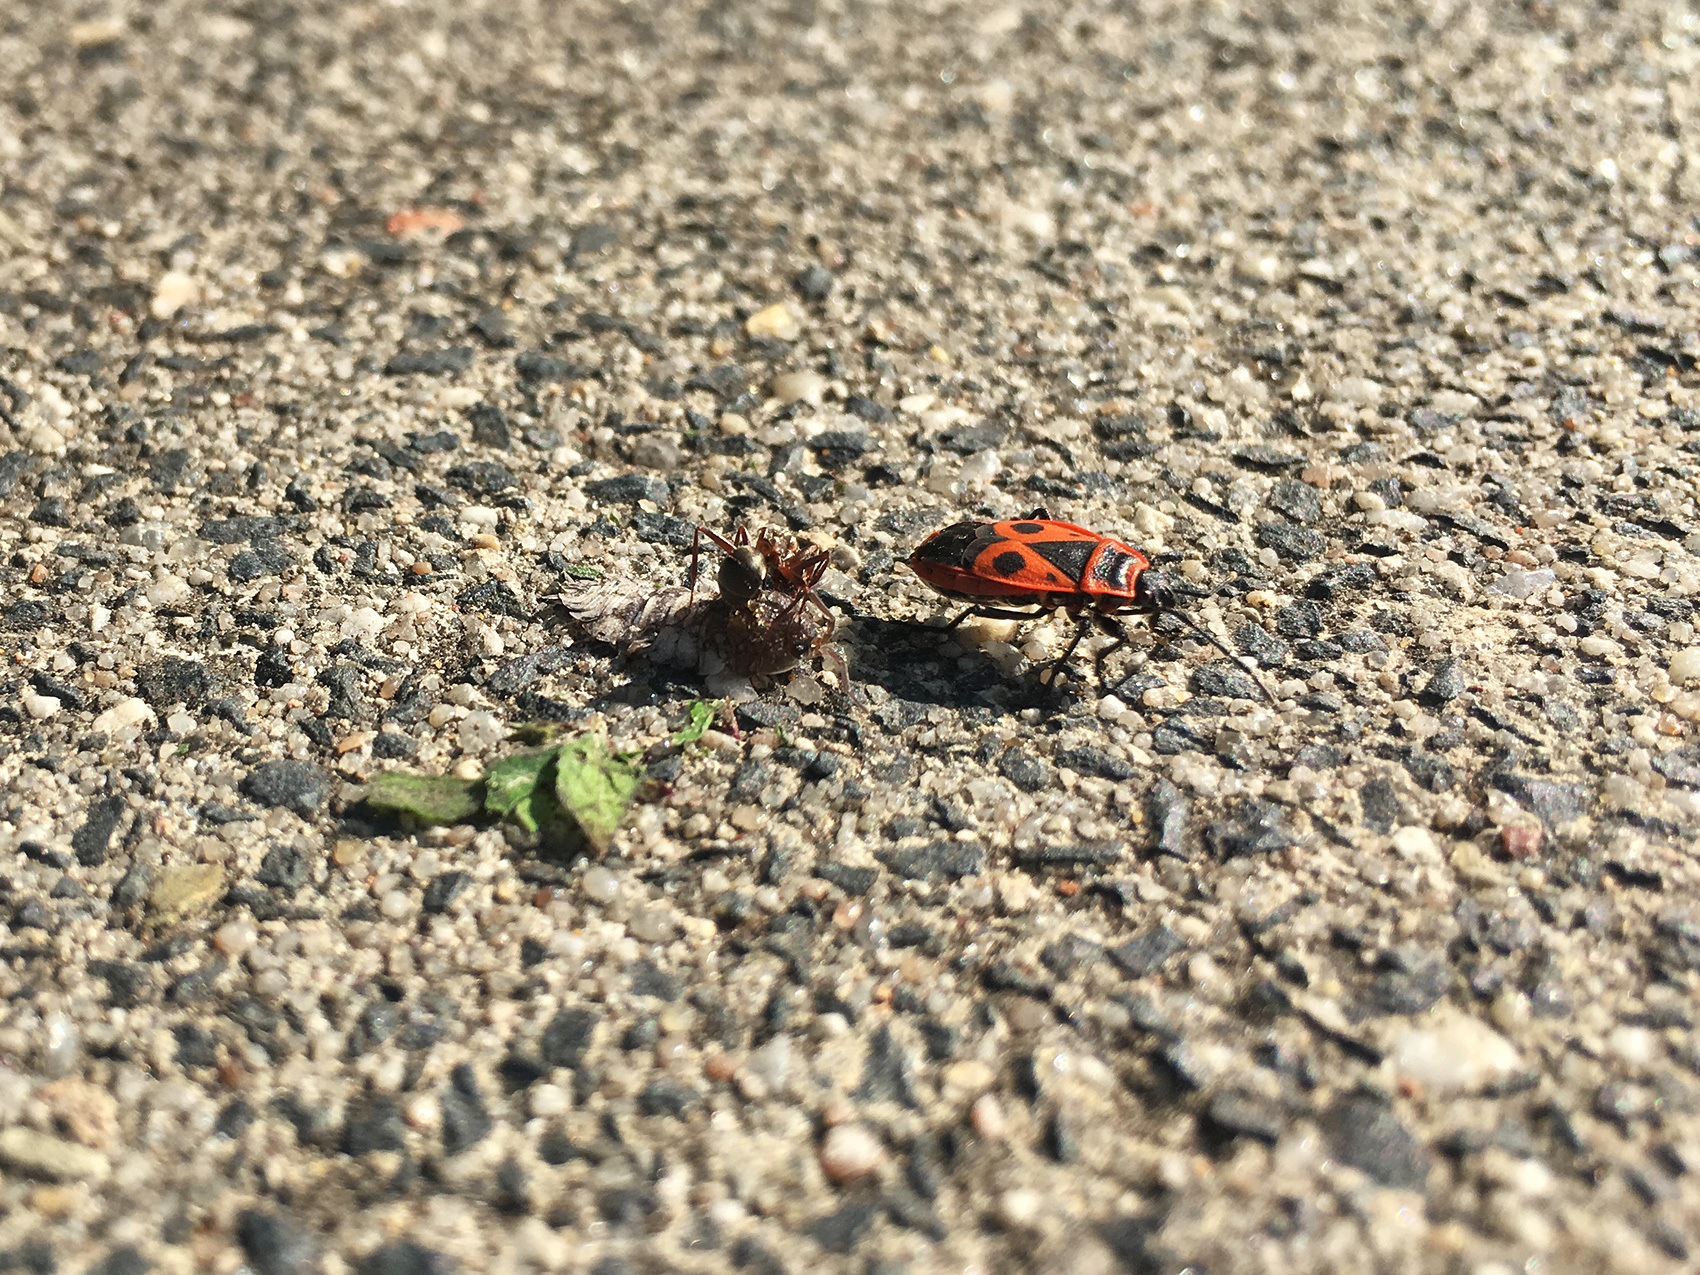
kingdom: Animalia
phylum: Arthropoda
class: Insecta
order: Hemiptera
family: Pyrrhocoridae
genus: Pyrrhocoris
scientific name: Pyrrhocoris apterus
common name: Firebug
